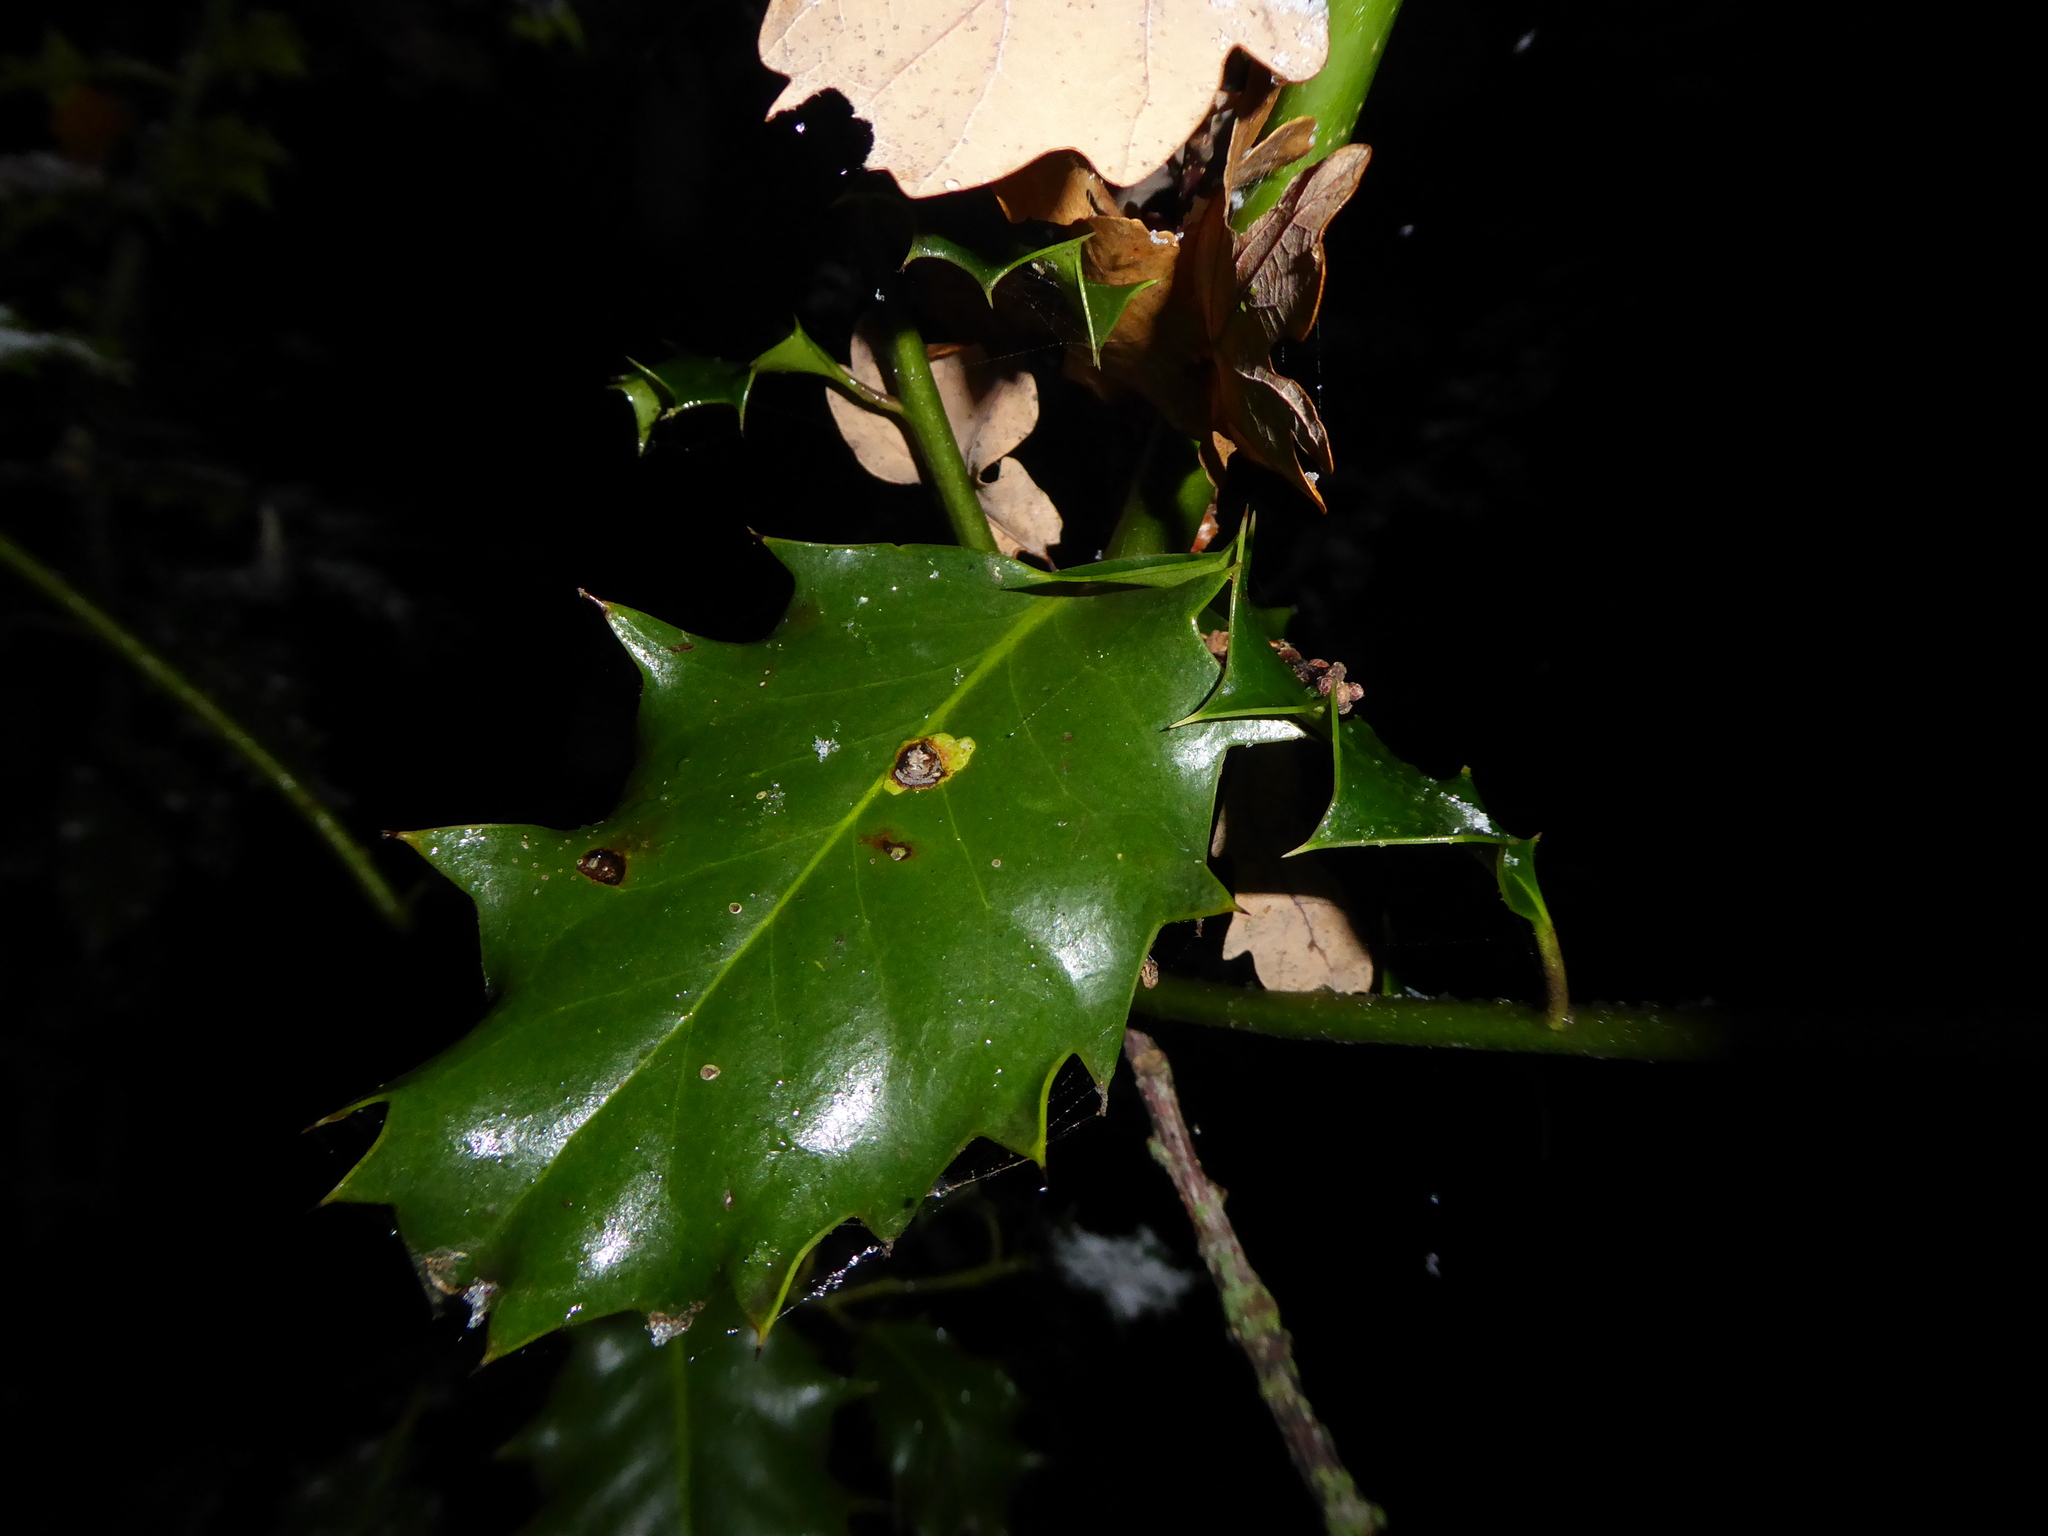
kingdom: Plantae
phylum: Tracheophyta
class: Magnoliopsida
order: Aquifoliales
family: Aquifoliaceae
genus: Ilex
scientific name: Ilex aquifolium
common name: English holly
